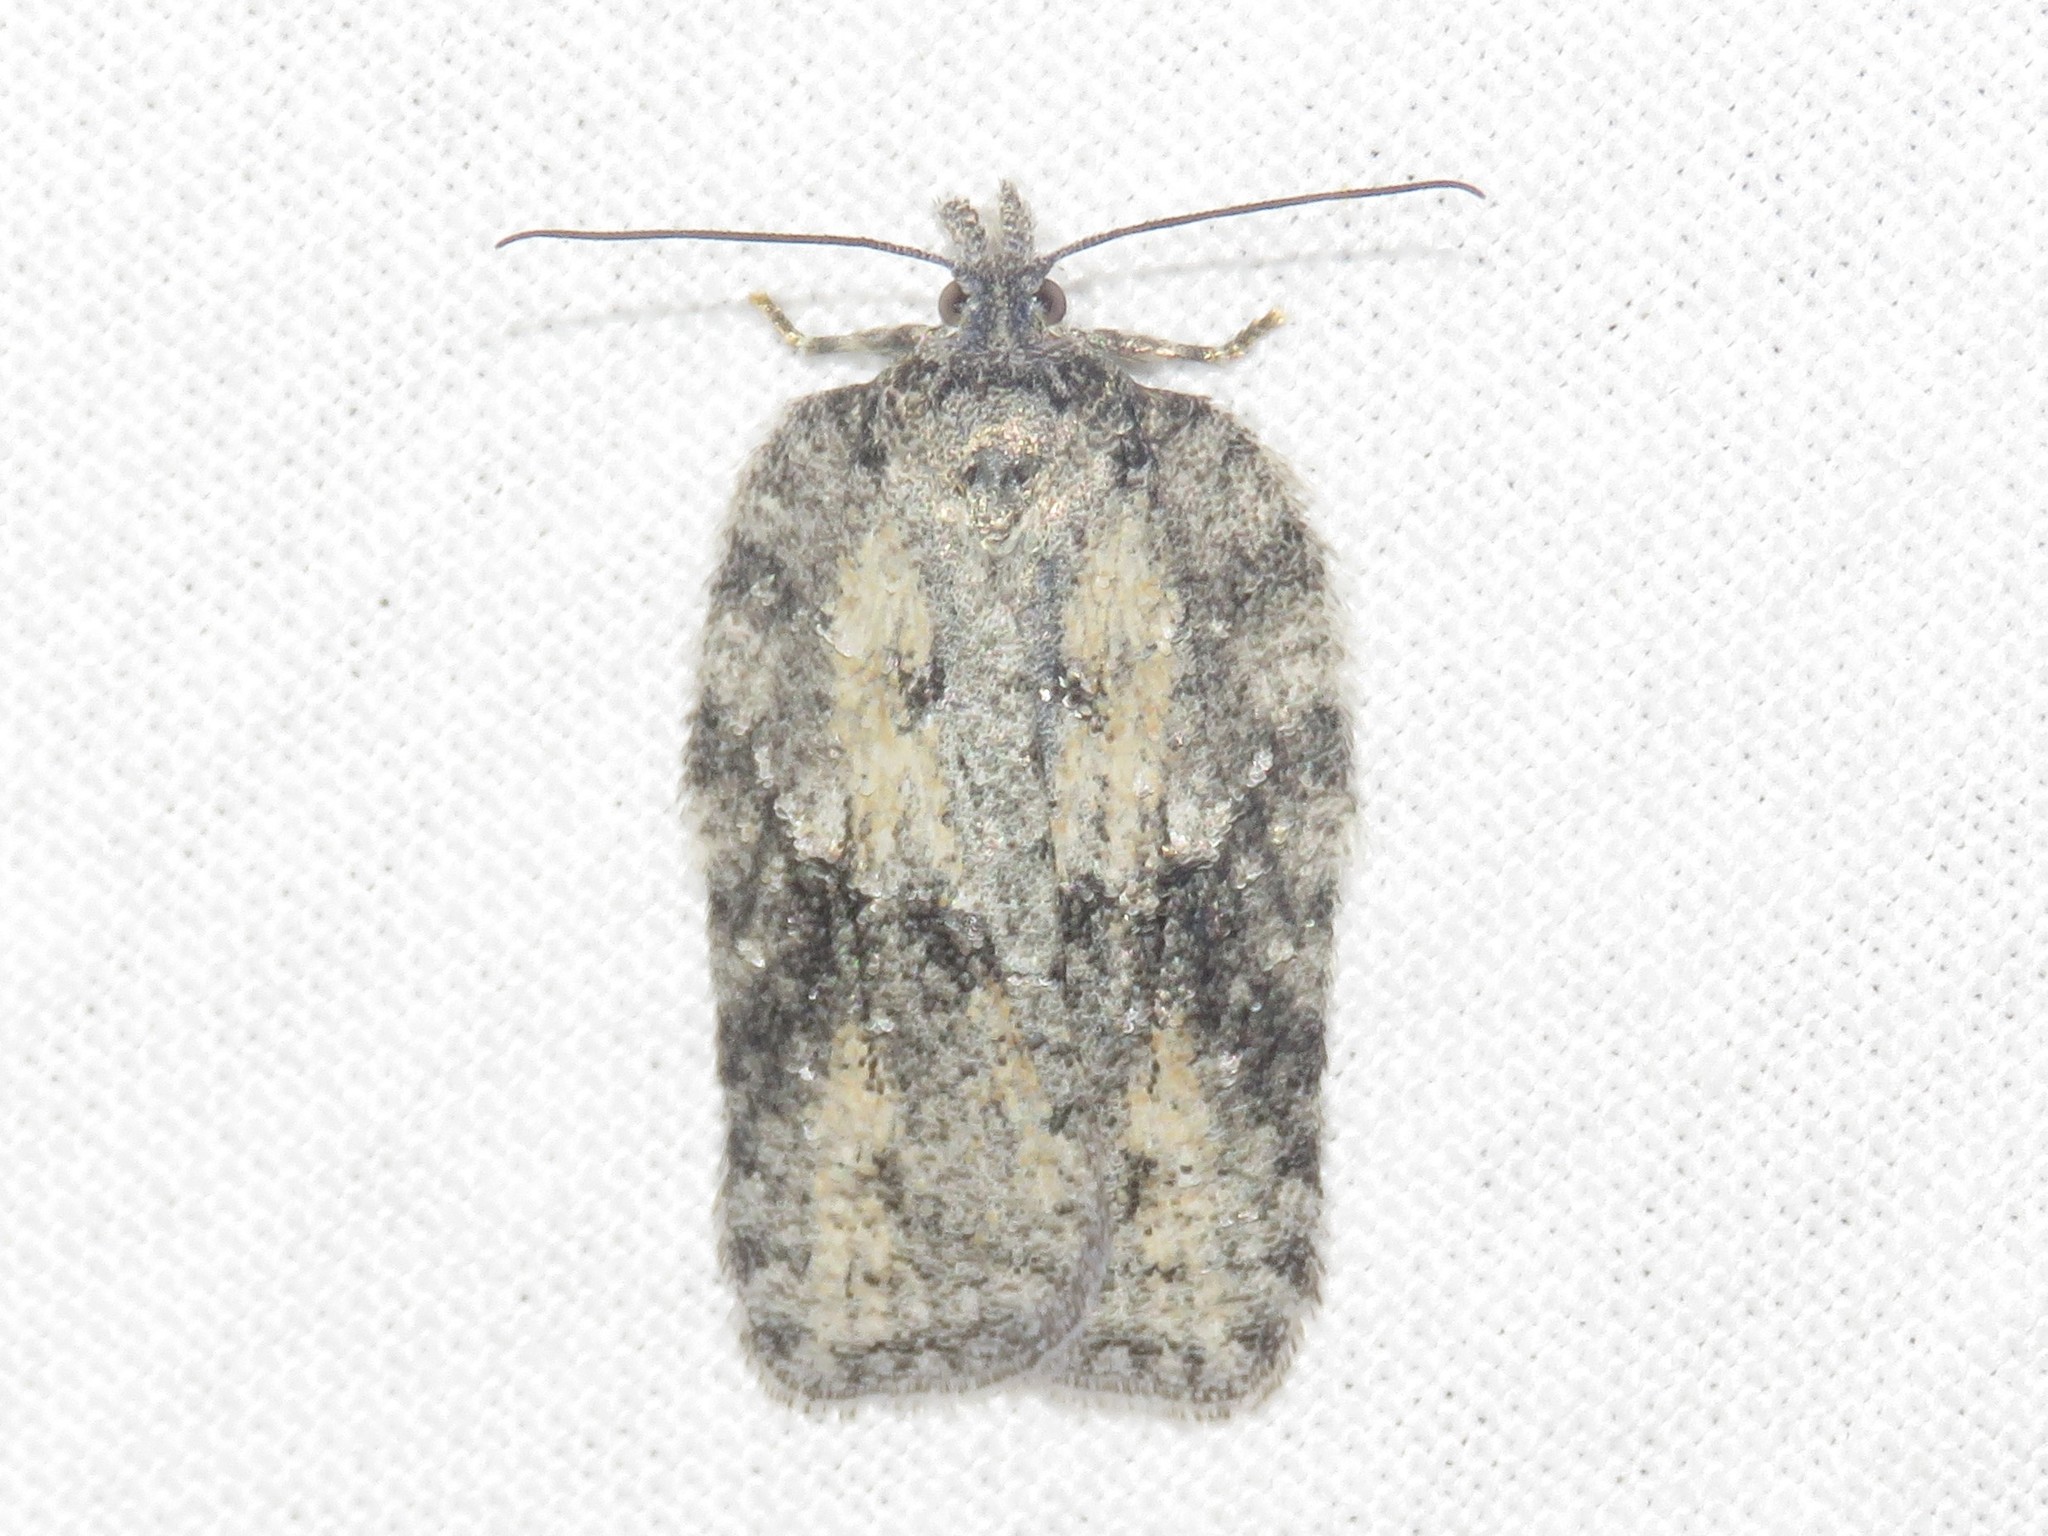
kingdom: Animalia
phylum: Arthropoda
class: Insecta
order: Lepidoptera
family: Tortricidae
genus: Acleris
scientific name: Acleris nigrolinea
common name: Black-lined acleris
